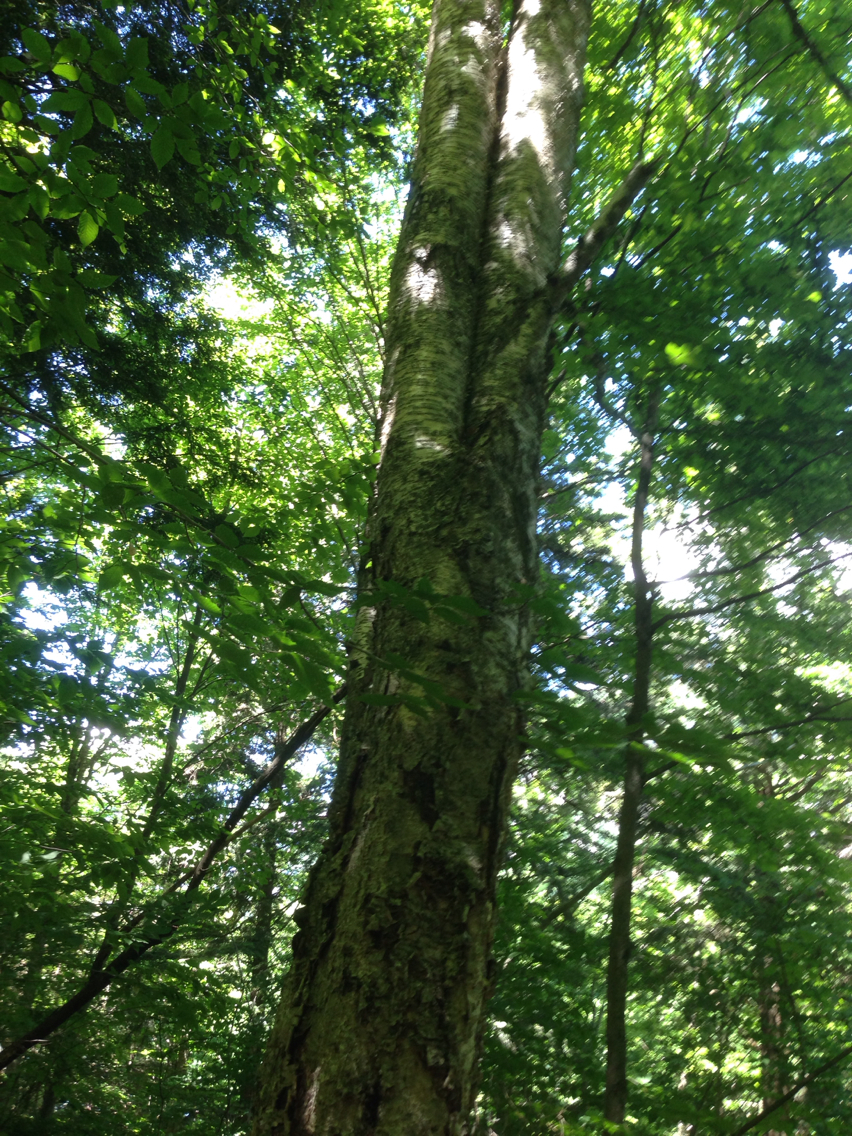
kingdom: Plantae
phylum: Tracheophyta
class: Magnoliopsida
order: Fagales
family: Betulaceae
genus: Betula
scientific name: Betula alleghaniensis
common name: Yellow birch
